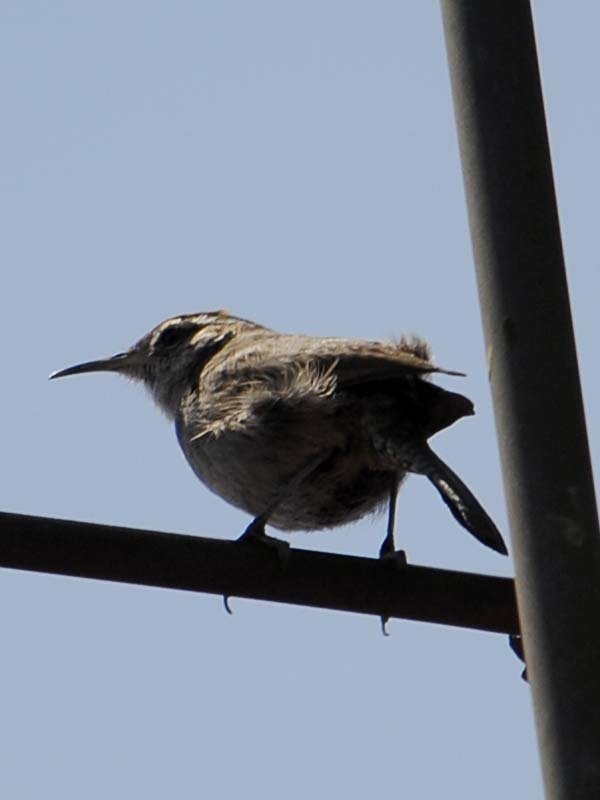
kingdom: Animalia
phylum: Chordata
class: Aves
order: Passeriformes
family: Troglodytidae
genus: Thryomanes
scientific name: Thryomanes bewickii
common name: Bewick's wren
